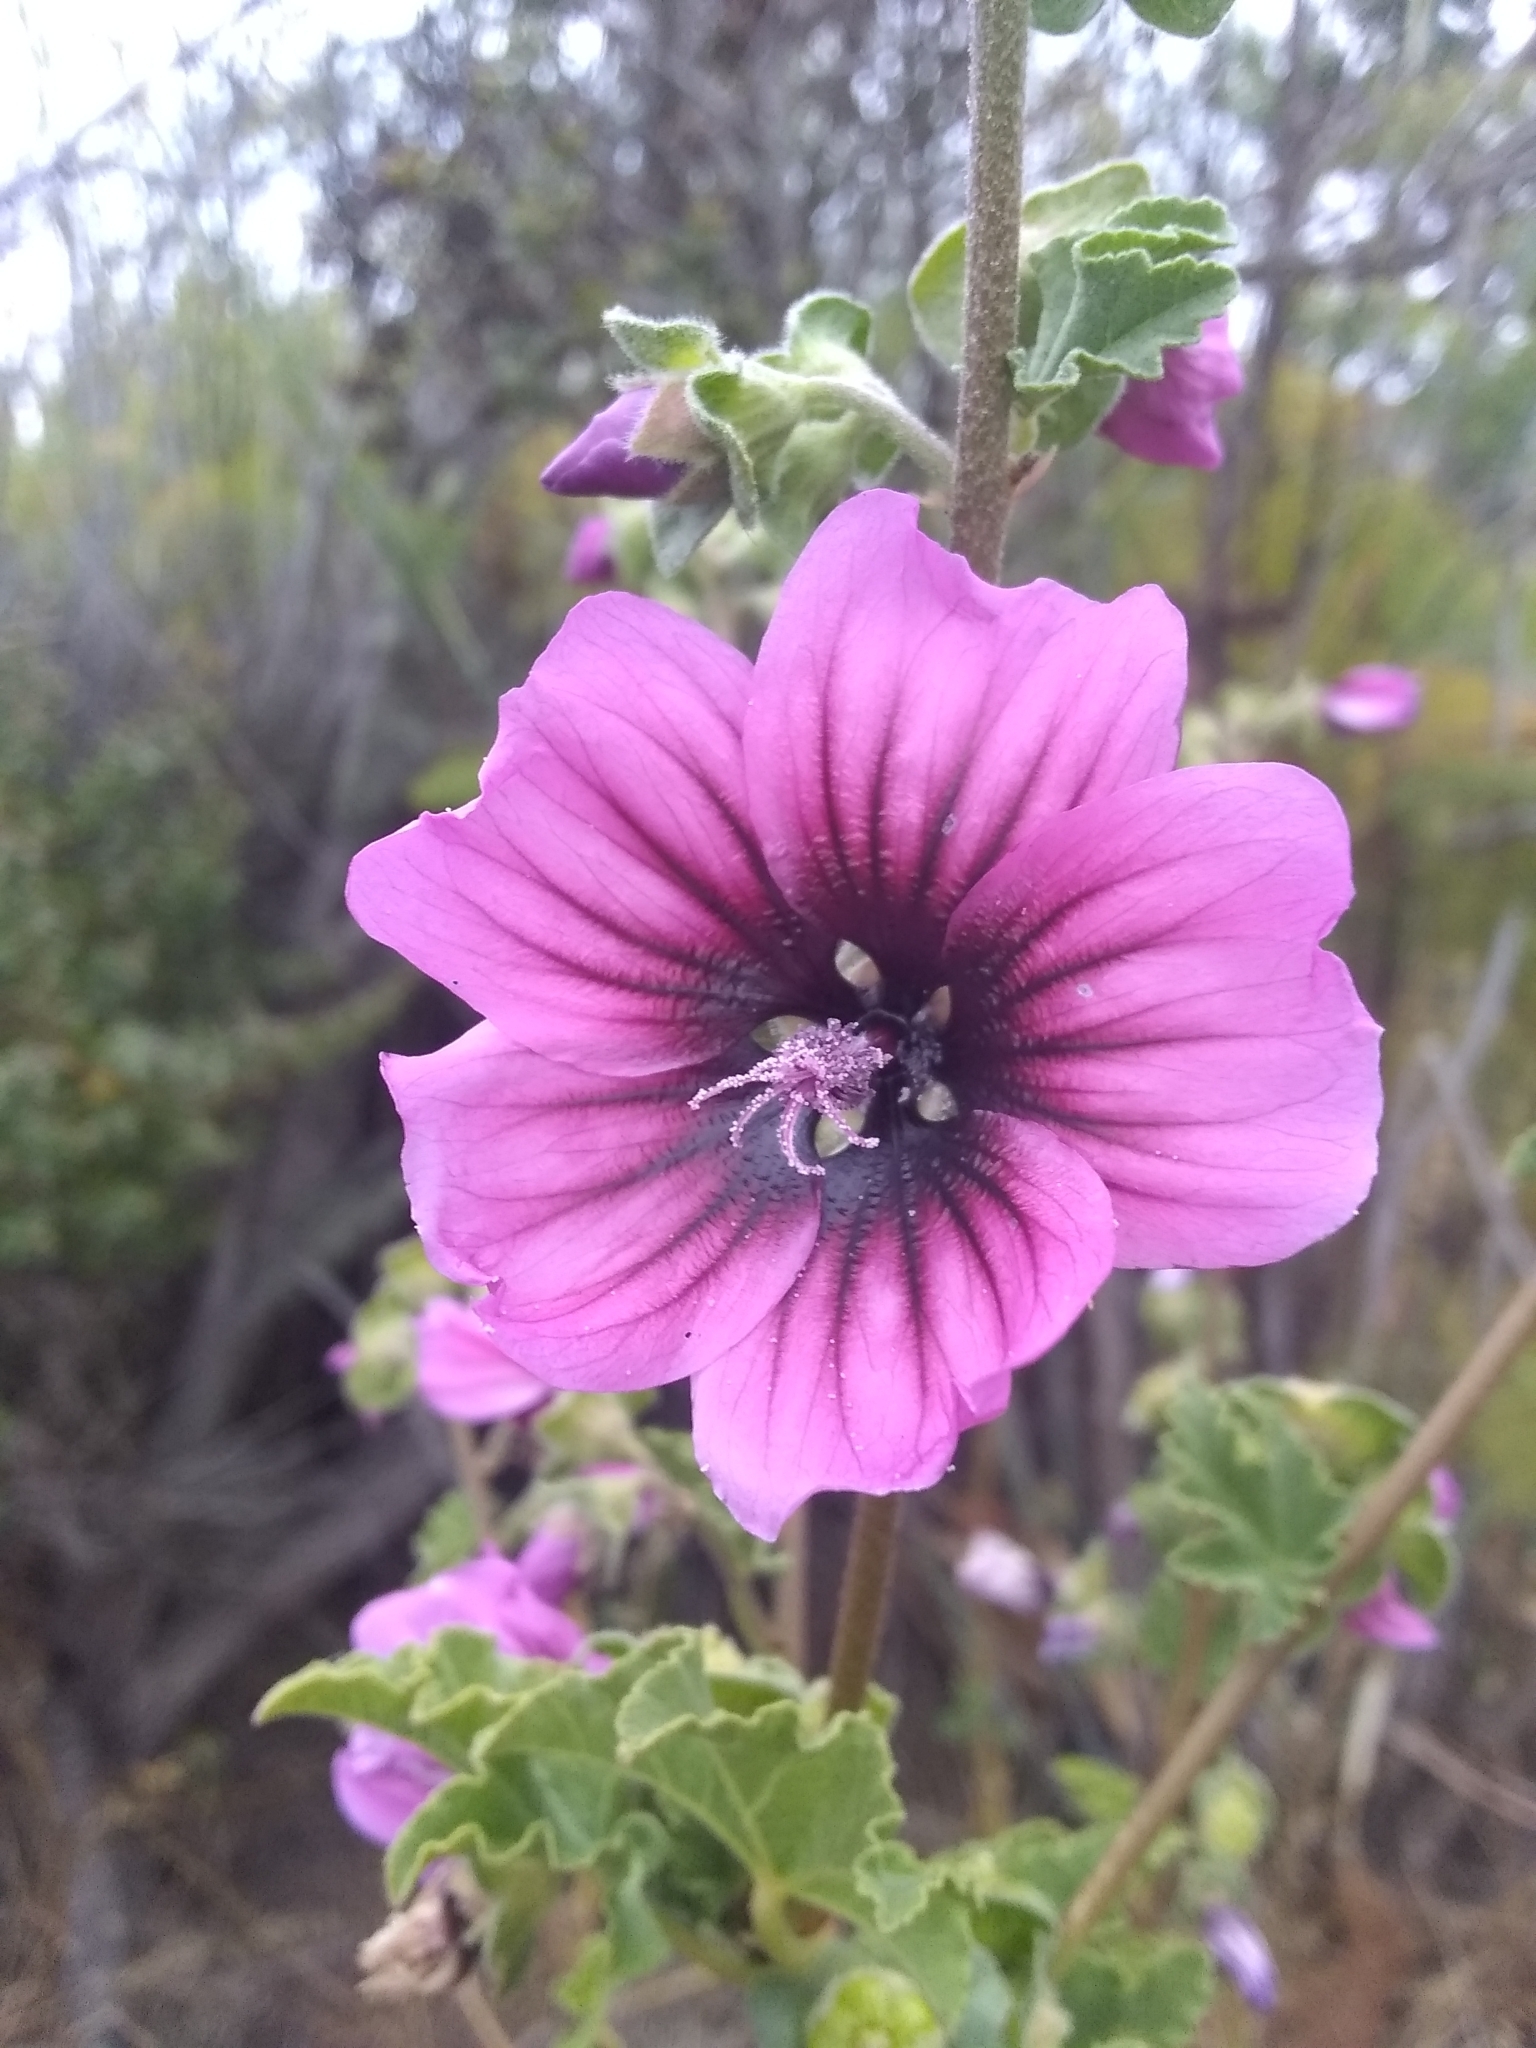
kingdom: Plantae
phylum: Tracheophyta
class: Magnoliopsida
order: Malvales
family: Malvaceae
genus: Malva
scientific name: Malva arborea
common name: Tree mallow
